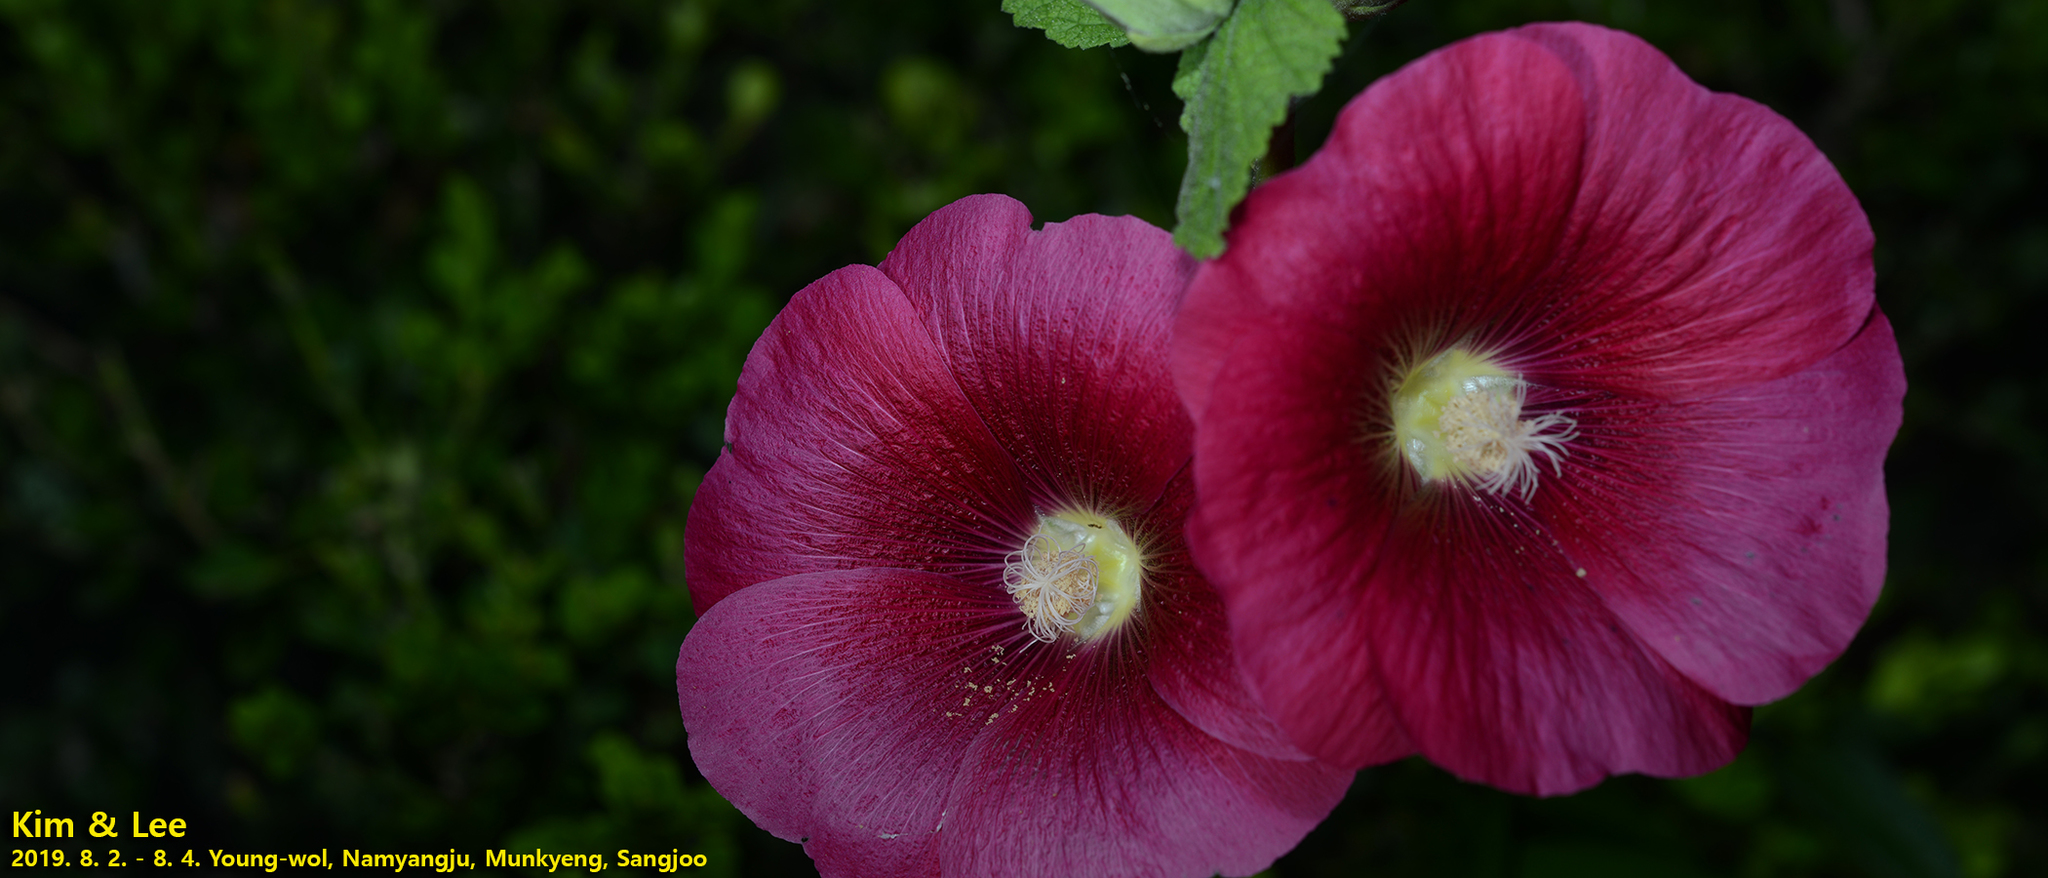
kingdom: Plantae
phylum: Tracheophyta
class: Magnoliopsida
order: Malvales
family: Malvaceae
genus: Alcea
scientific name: Alcea rosea
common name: Hollyhock
